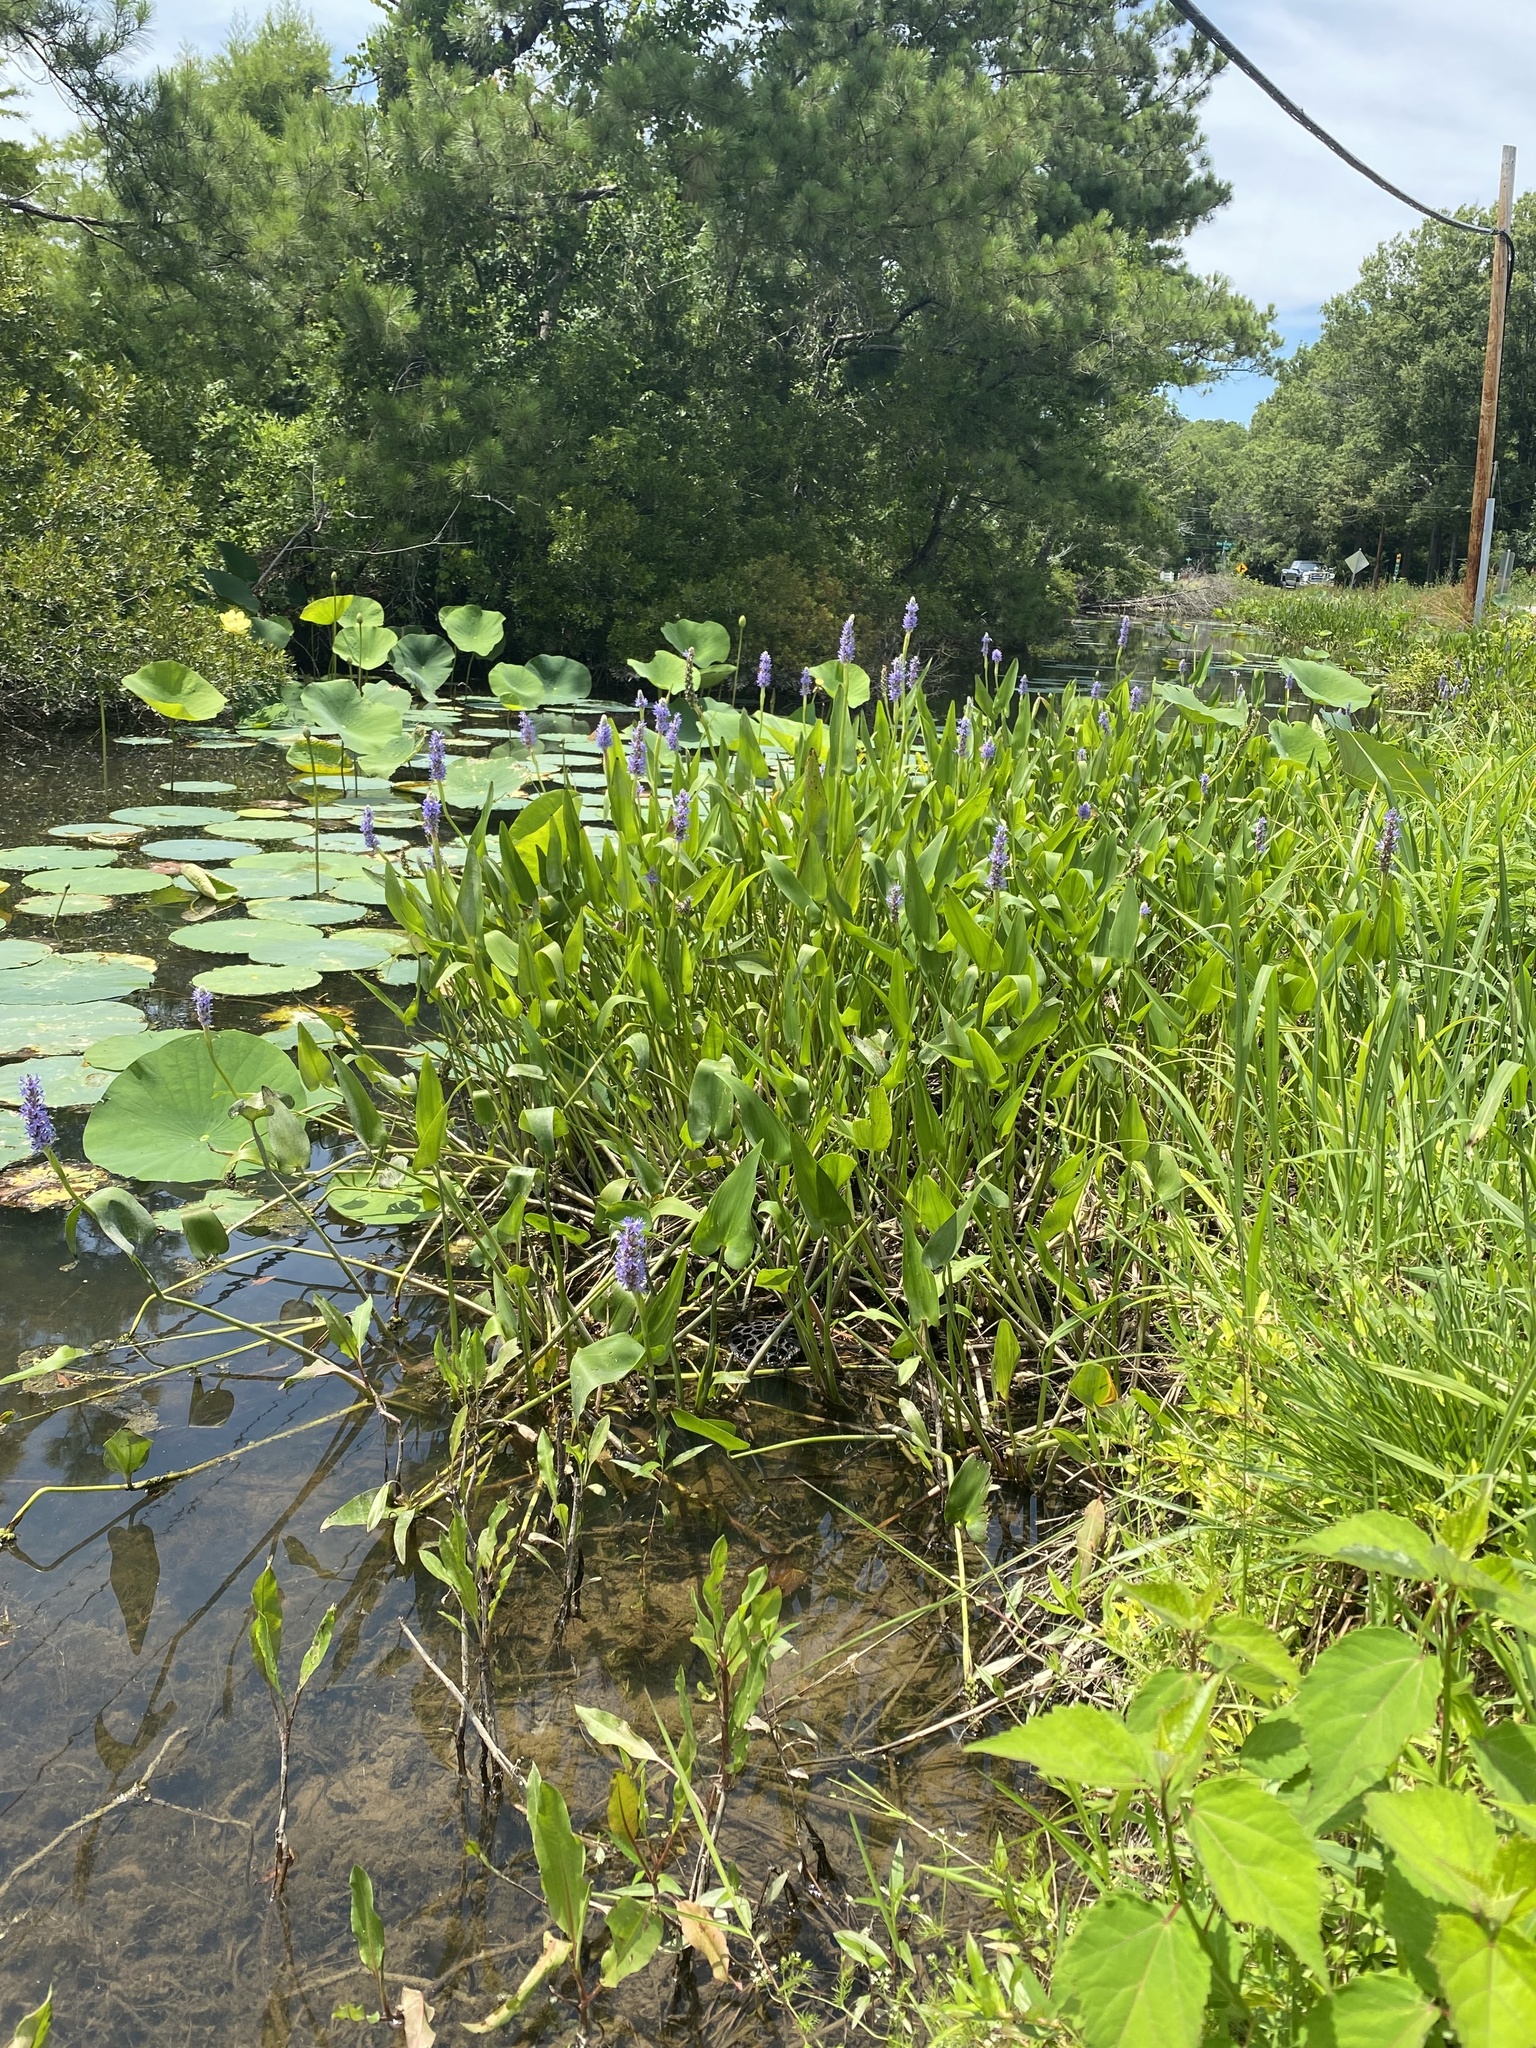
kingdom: Plantae
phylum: Tracheophyta
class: Liliopsida
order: Commelinales
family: Pontederiaceae
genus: Pontederia
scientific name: Pontederia cordata
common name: Pickerelweed
